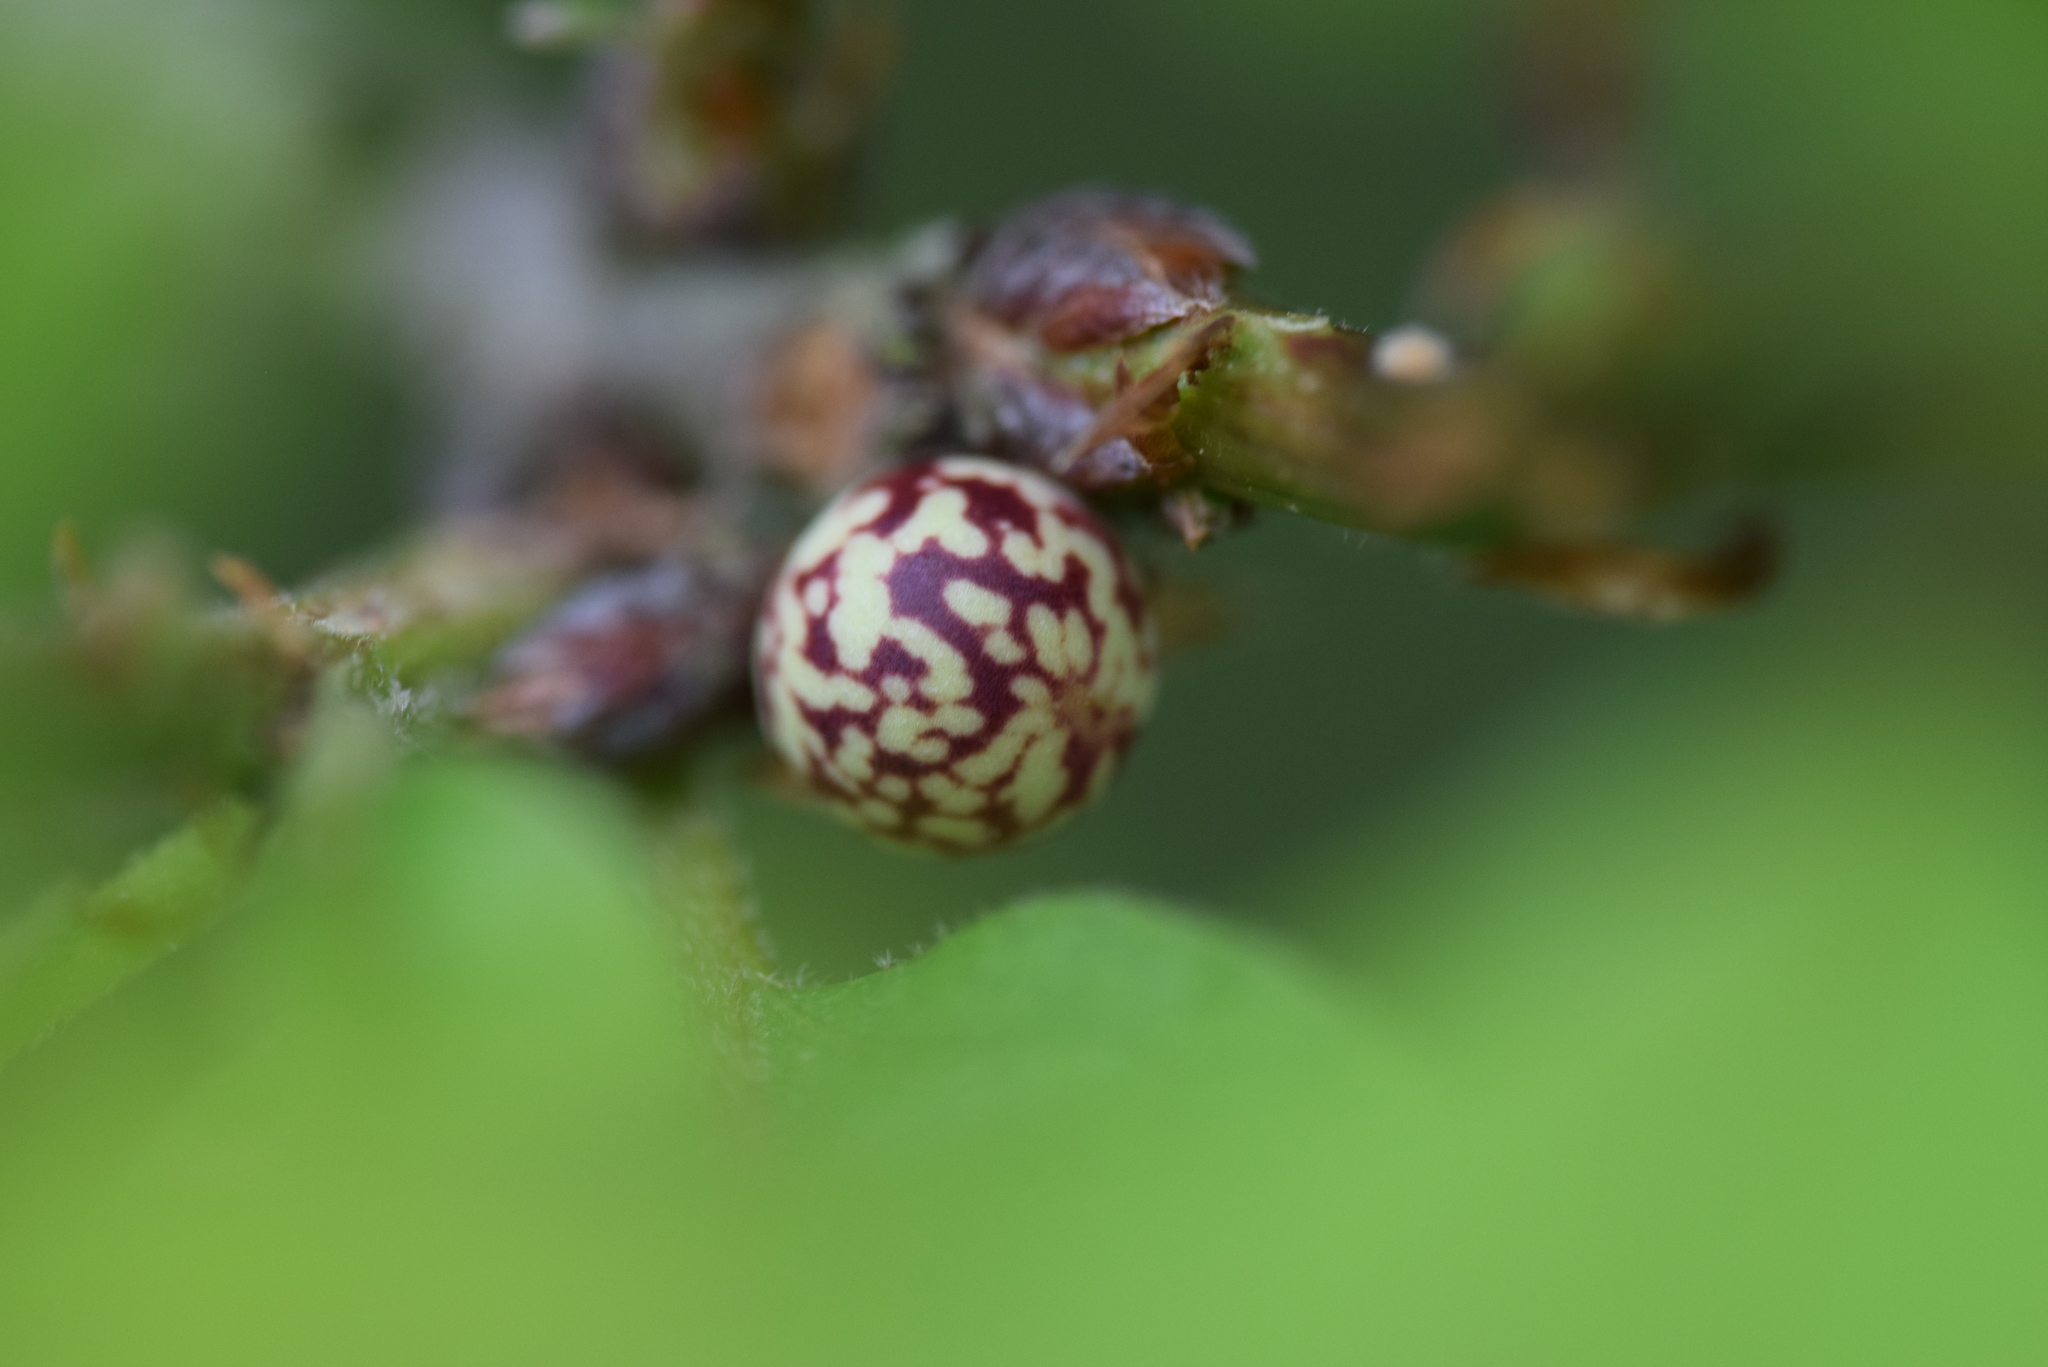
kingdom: Animalia
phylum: Arthropoda
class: Insecta
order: Hymenoptera
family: Cynipidae
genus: Andricus
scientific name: Andricus
